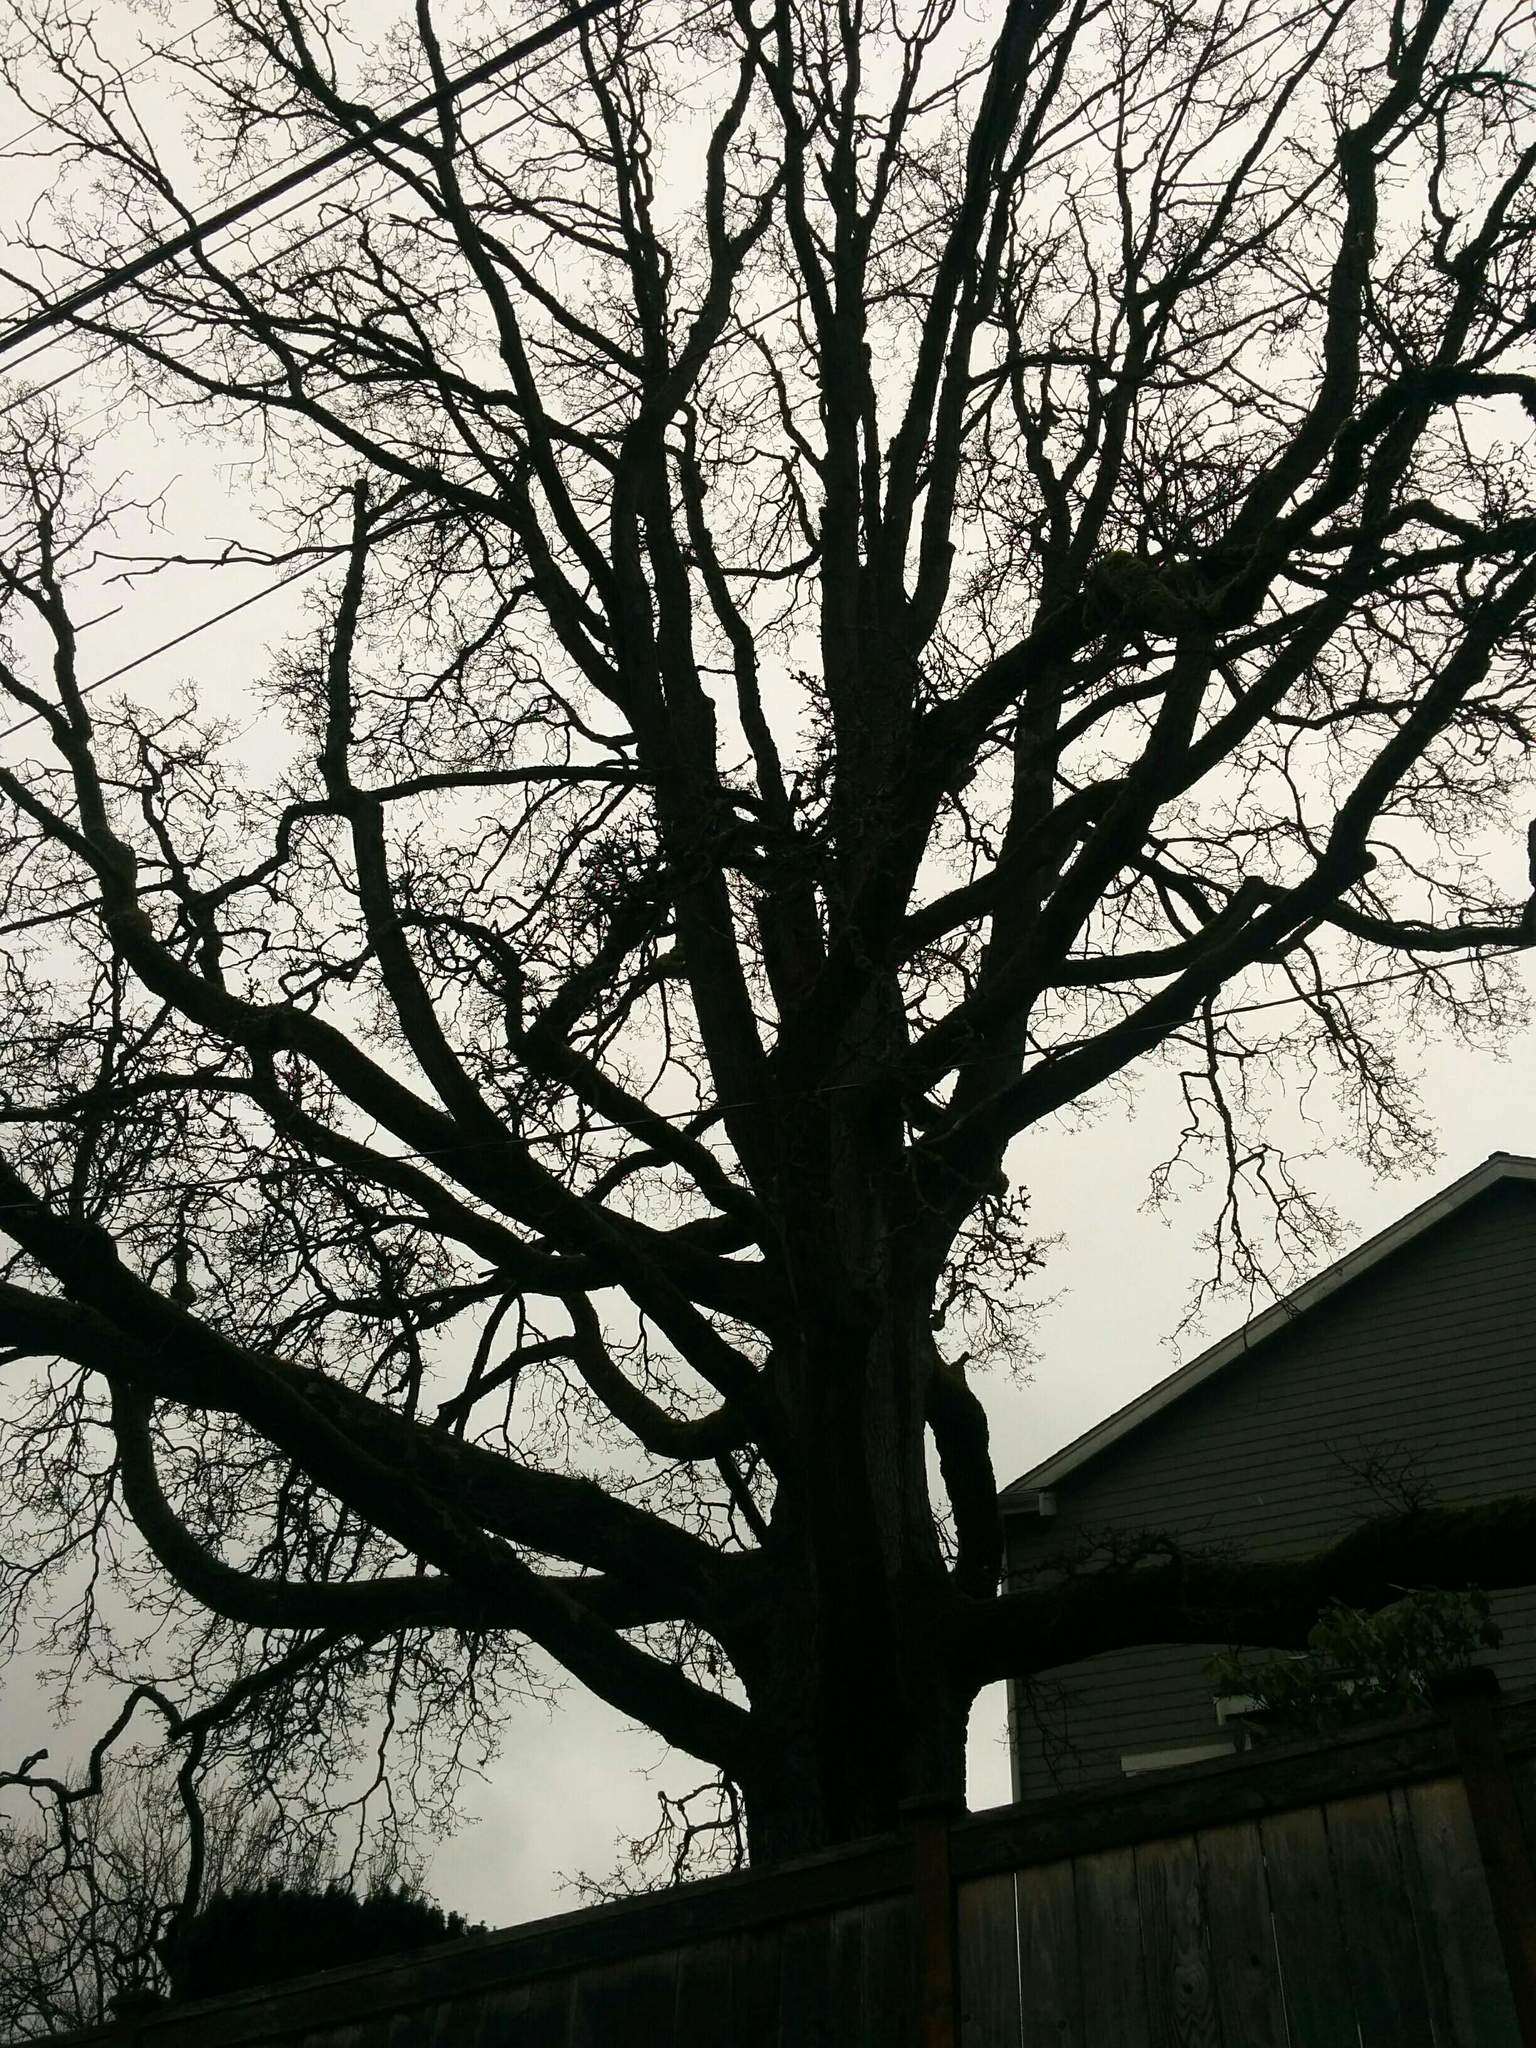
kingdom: Plantae
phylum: Tracheophyta
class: Magnoliopsida
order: Fagales
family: Fagaceae
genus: Quercus
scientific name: Quercus garryana
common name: Garry oak
